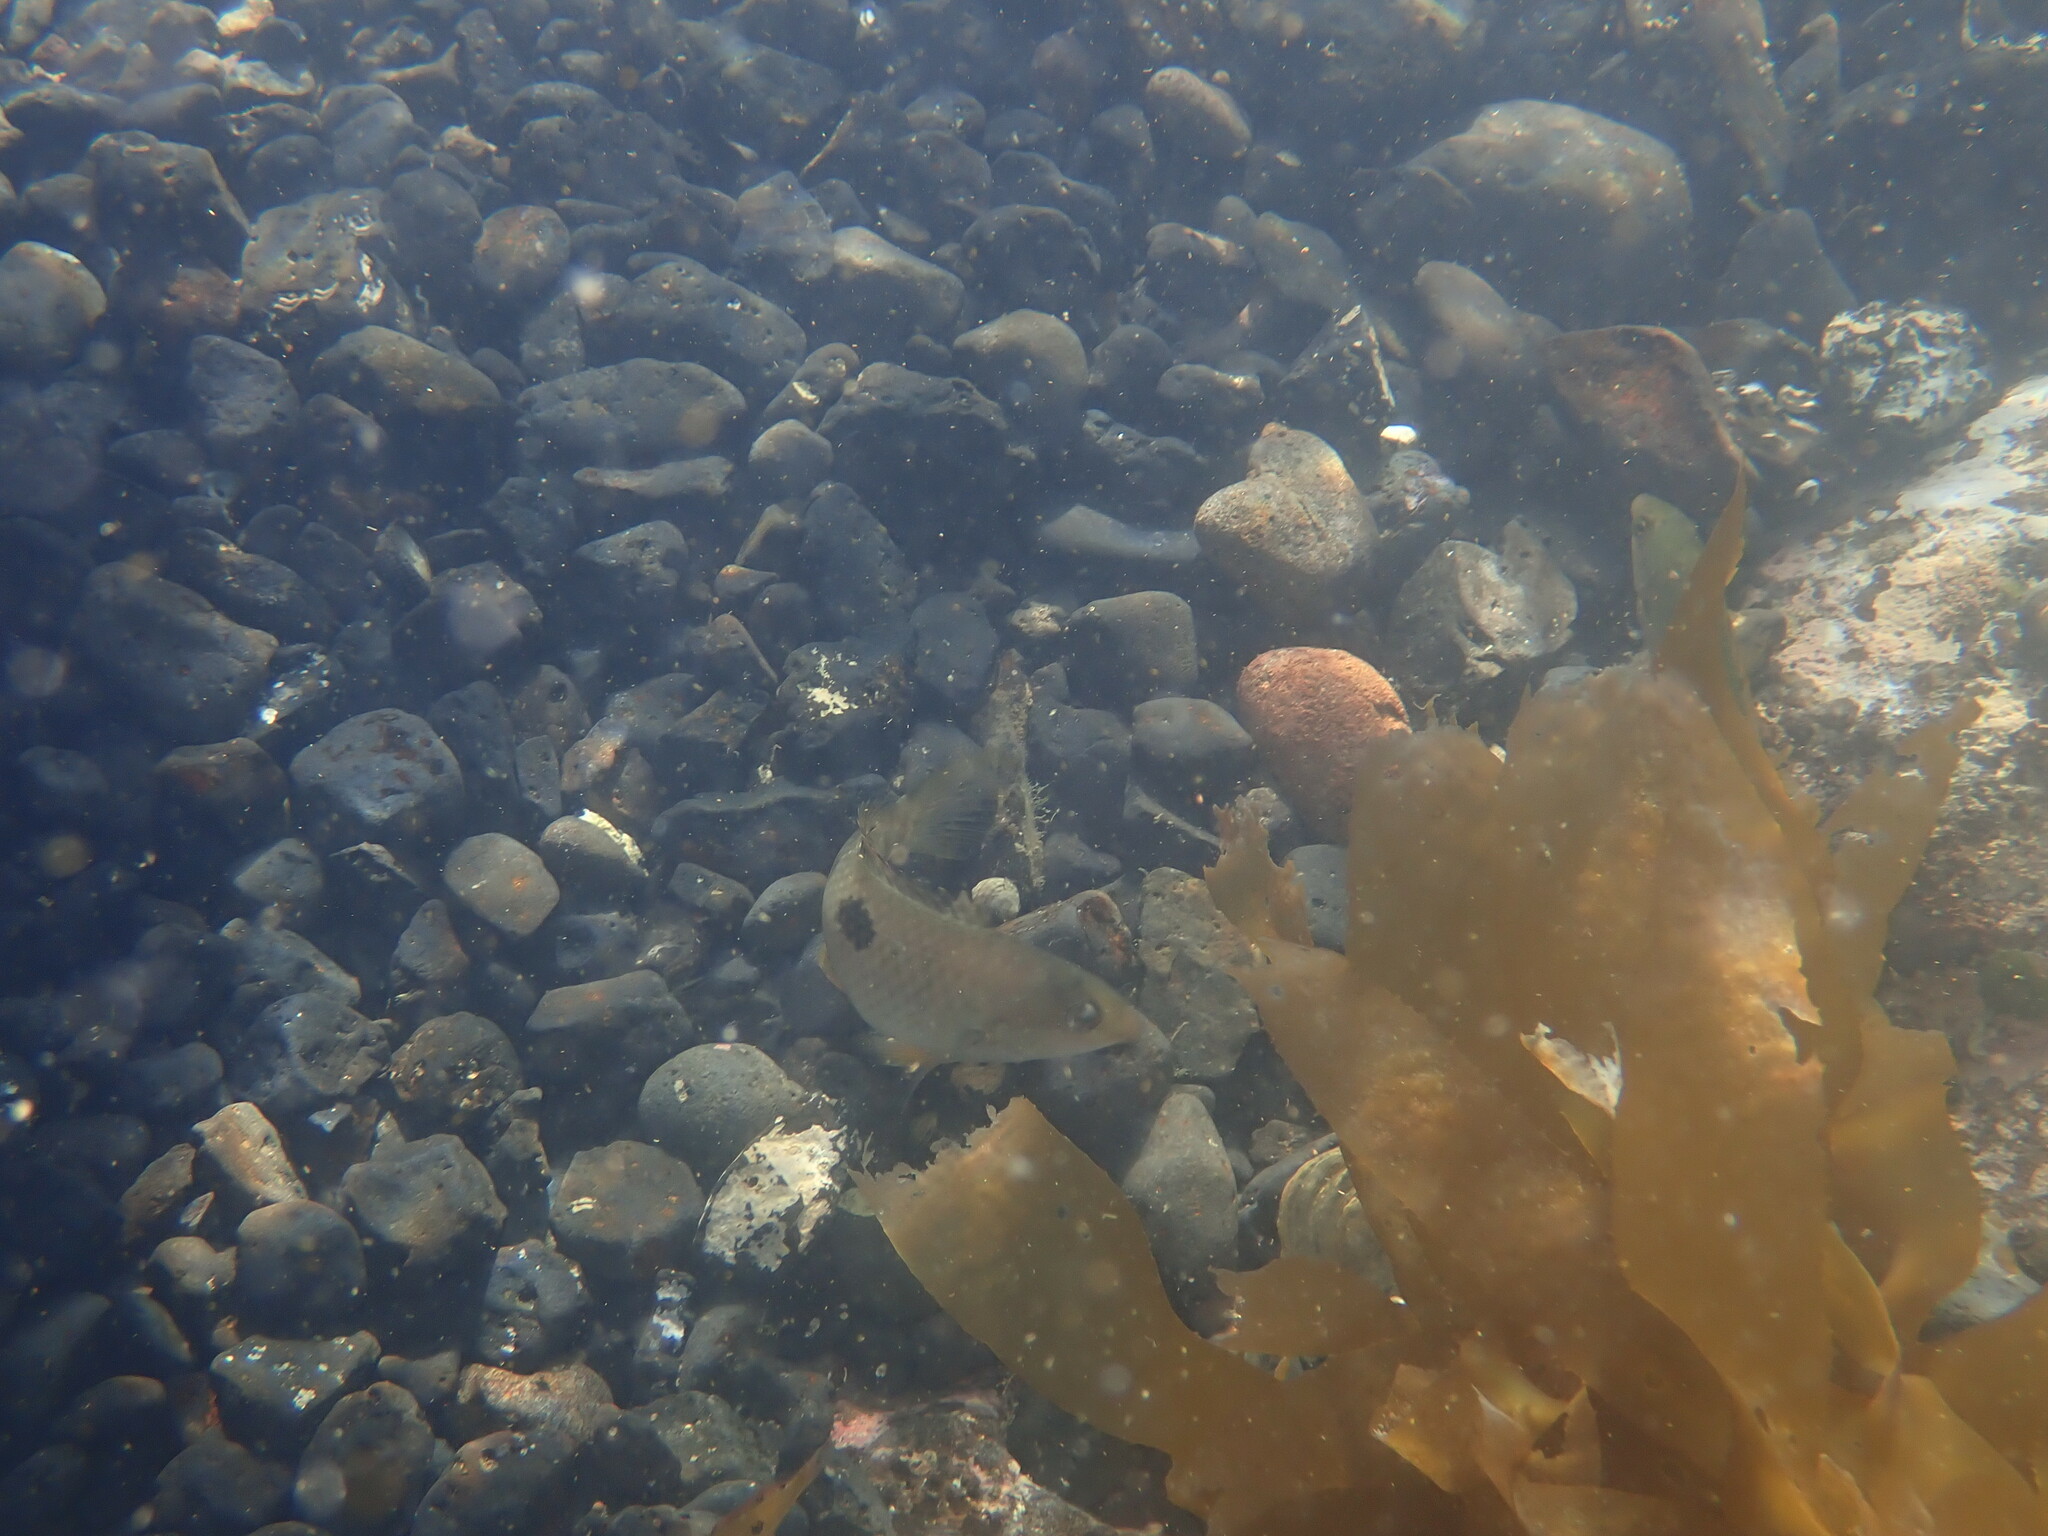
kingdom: Animalia
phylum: Chordata
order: Perciformes
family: Labridae
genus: Notolabrus
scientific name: Notolabrus celidotus
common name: Spotty
